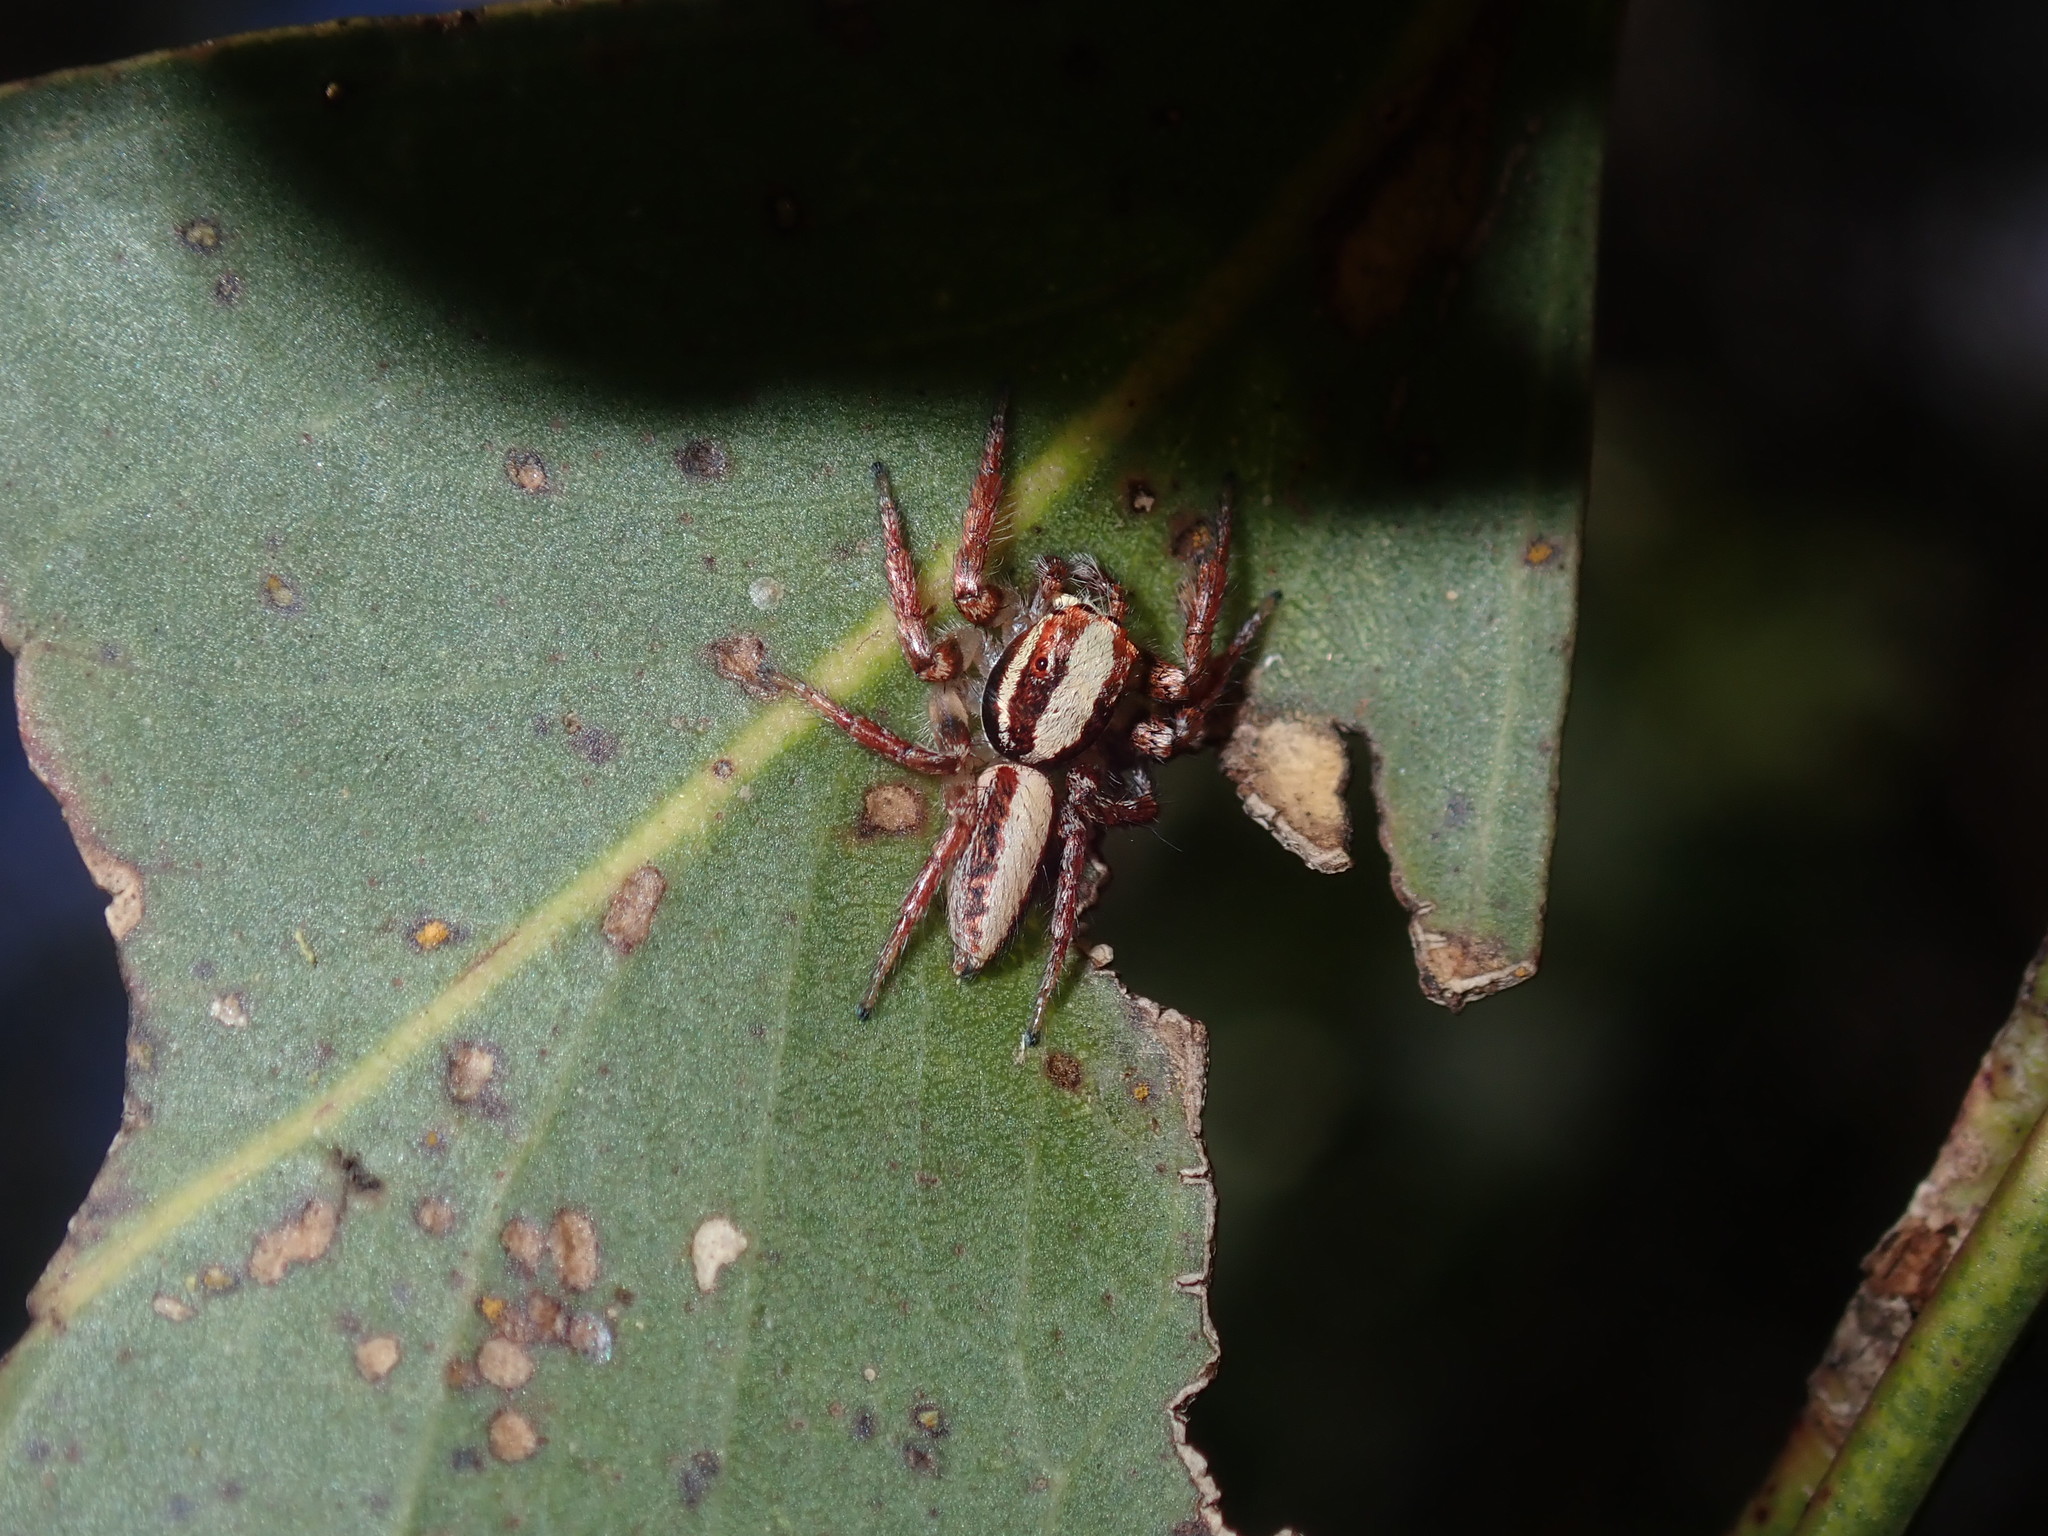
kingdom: Animalia
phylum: Arthropoda
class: Arachnida
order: Araneae
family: Salticidae
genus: Cytaea
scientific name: Cytaea alburna
